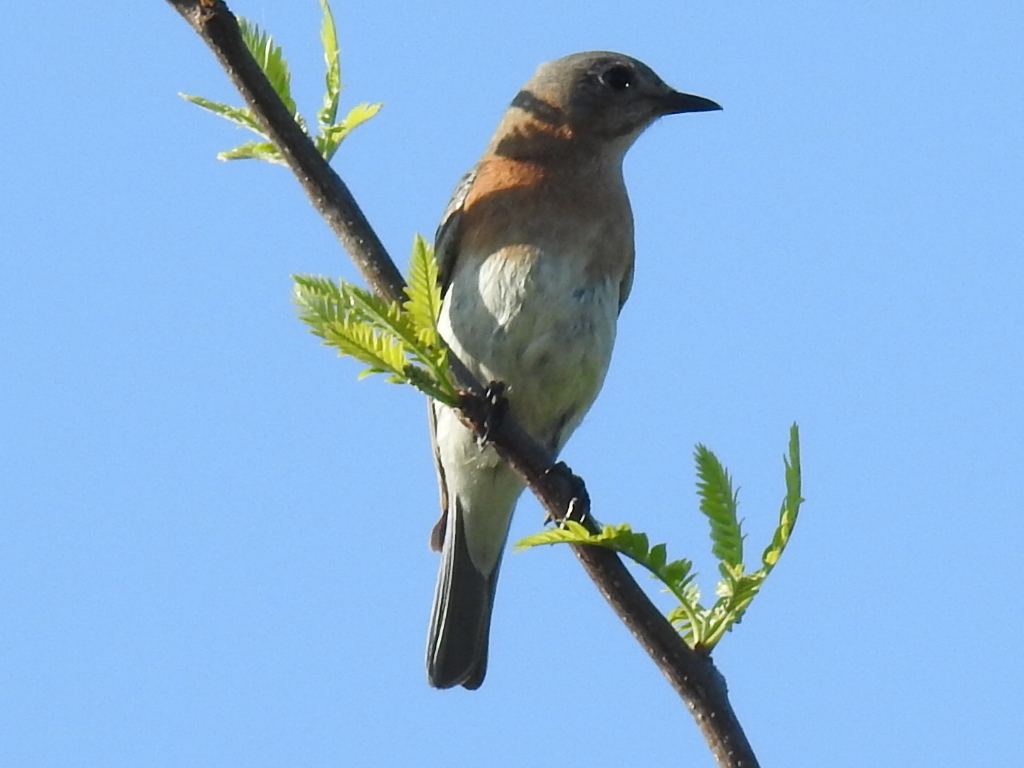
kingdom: Animalia
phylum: Chordata
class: Aves
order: Passeriformes
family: Turdidae
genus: Sialia
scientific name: Sialia sialis
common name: Eastern bluebird
